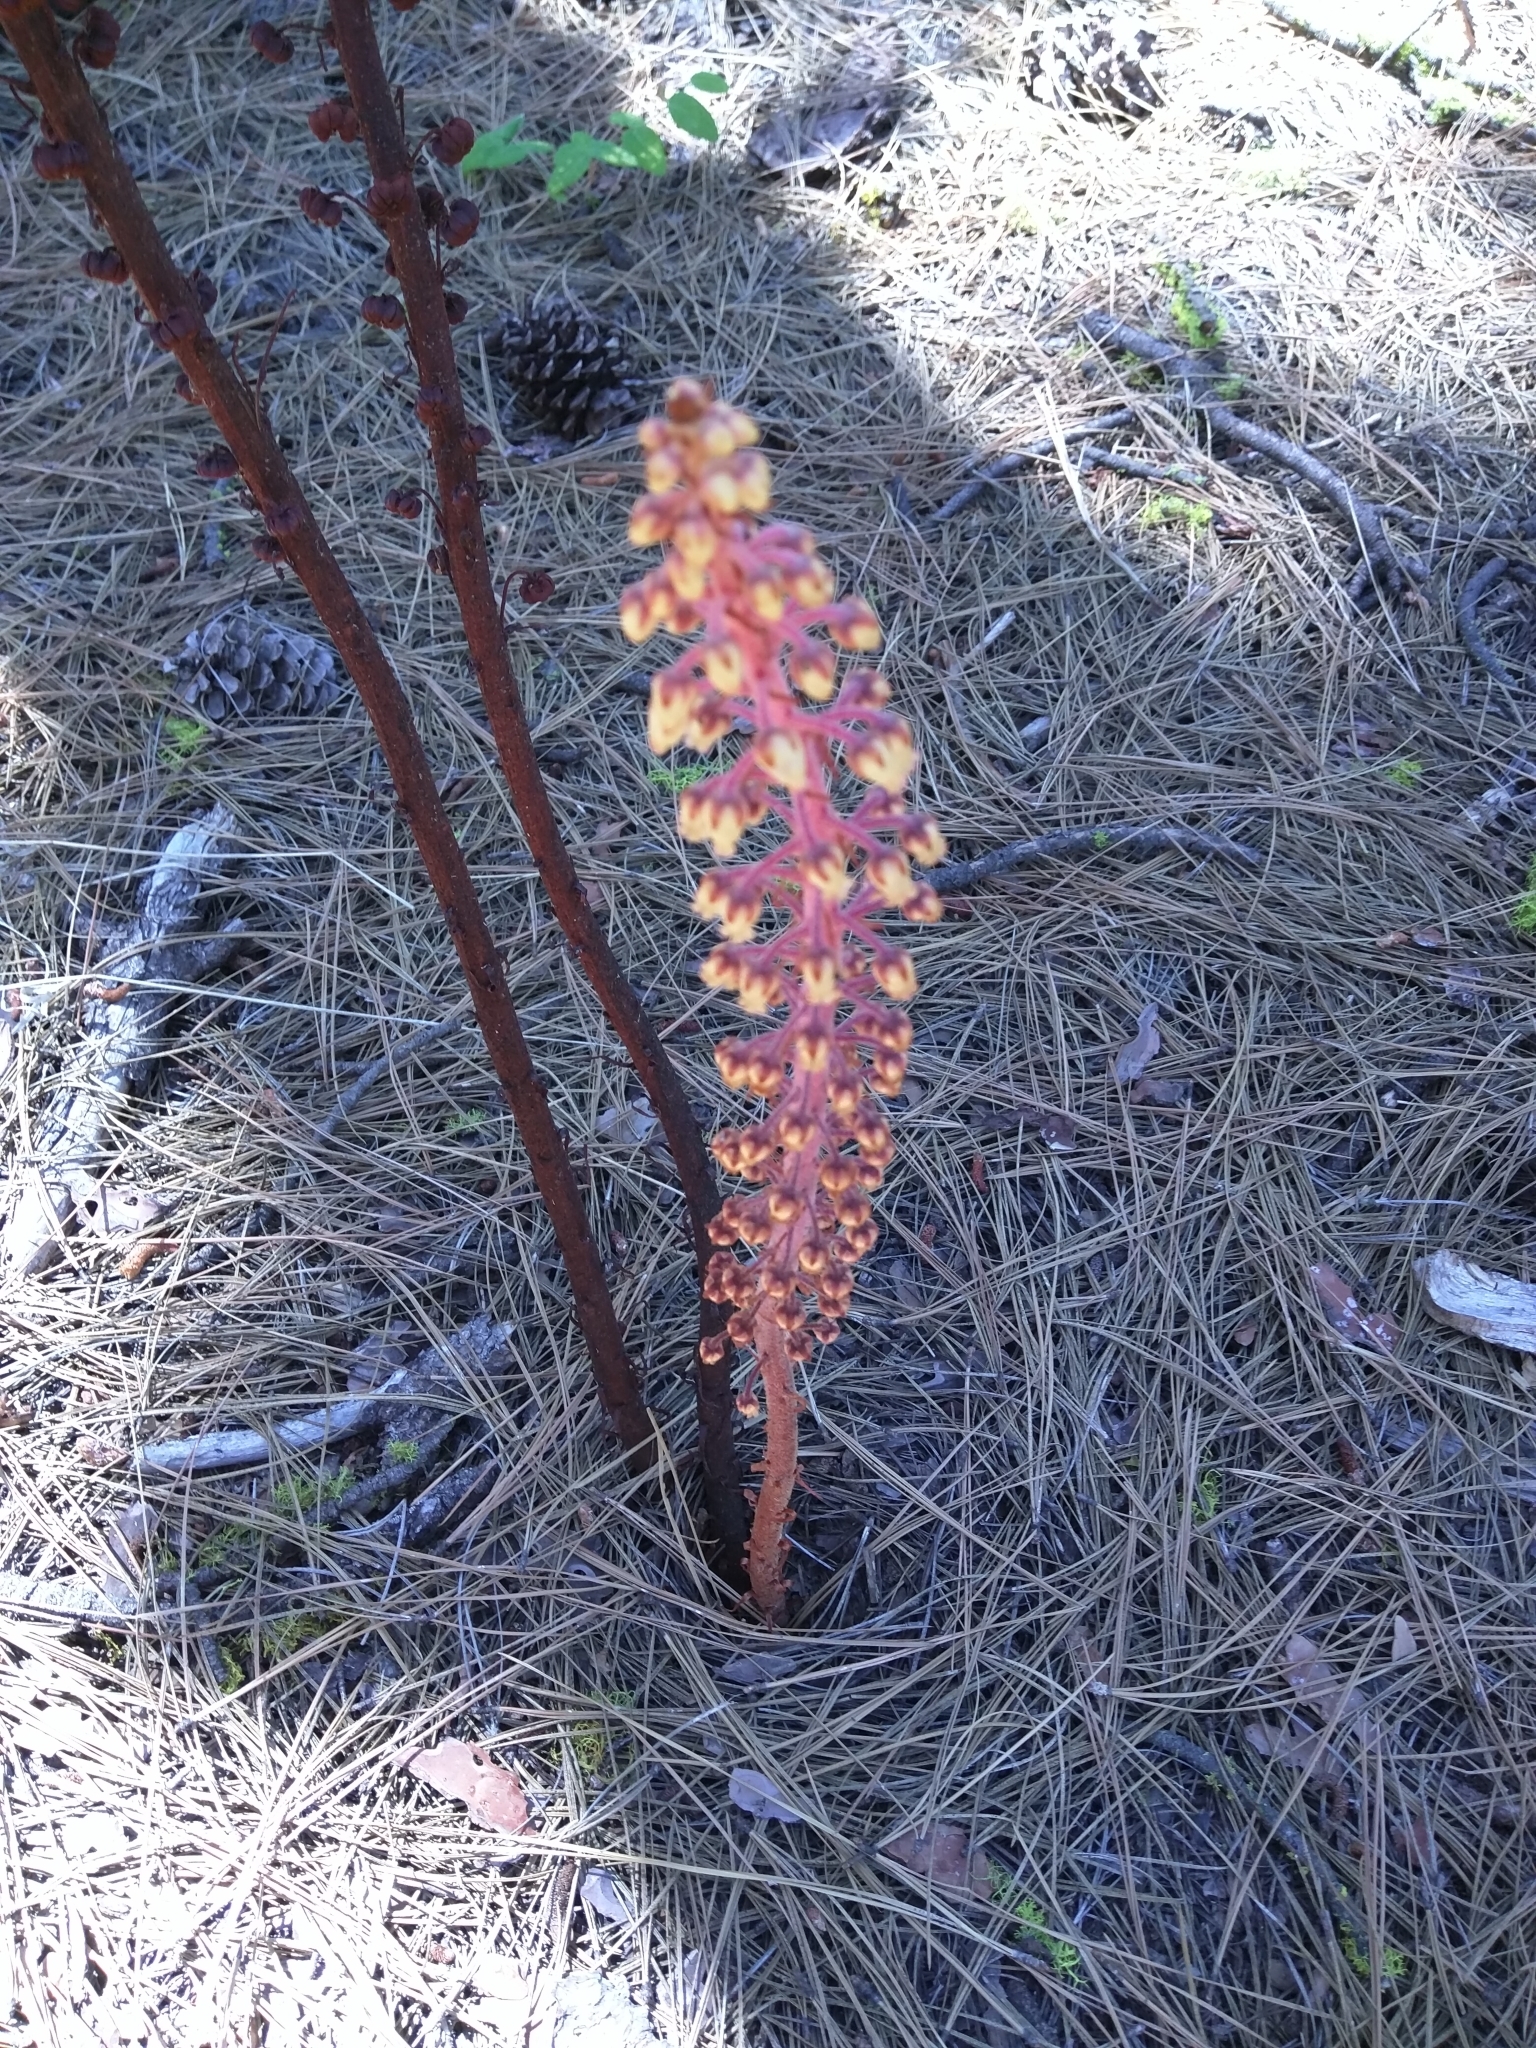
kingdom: Plantae
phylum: Tracheophyta
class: Magnoliopsida
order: Ericales
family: Ericaceae
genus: Pterospora
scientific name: Pterospora andromedea
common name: Giant bird's-nest
